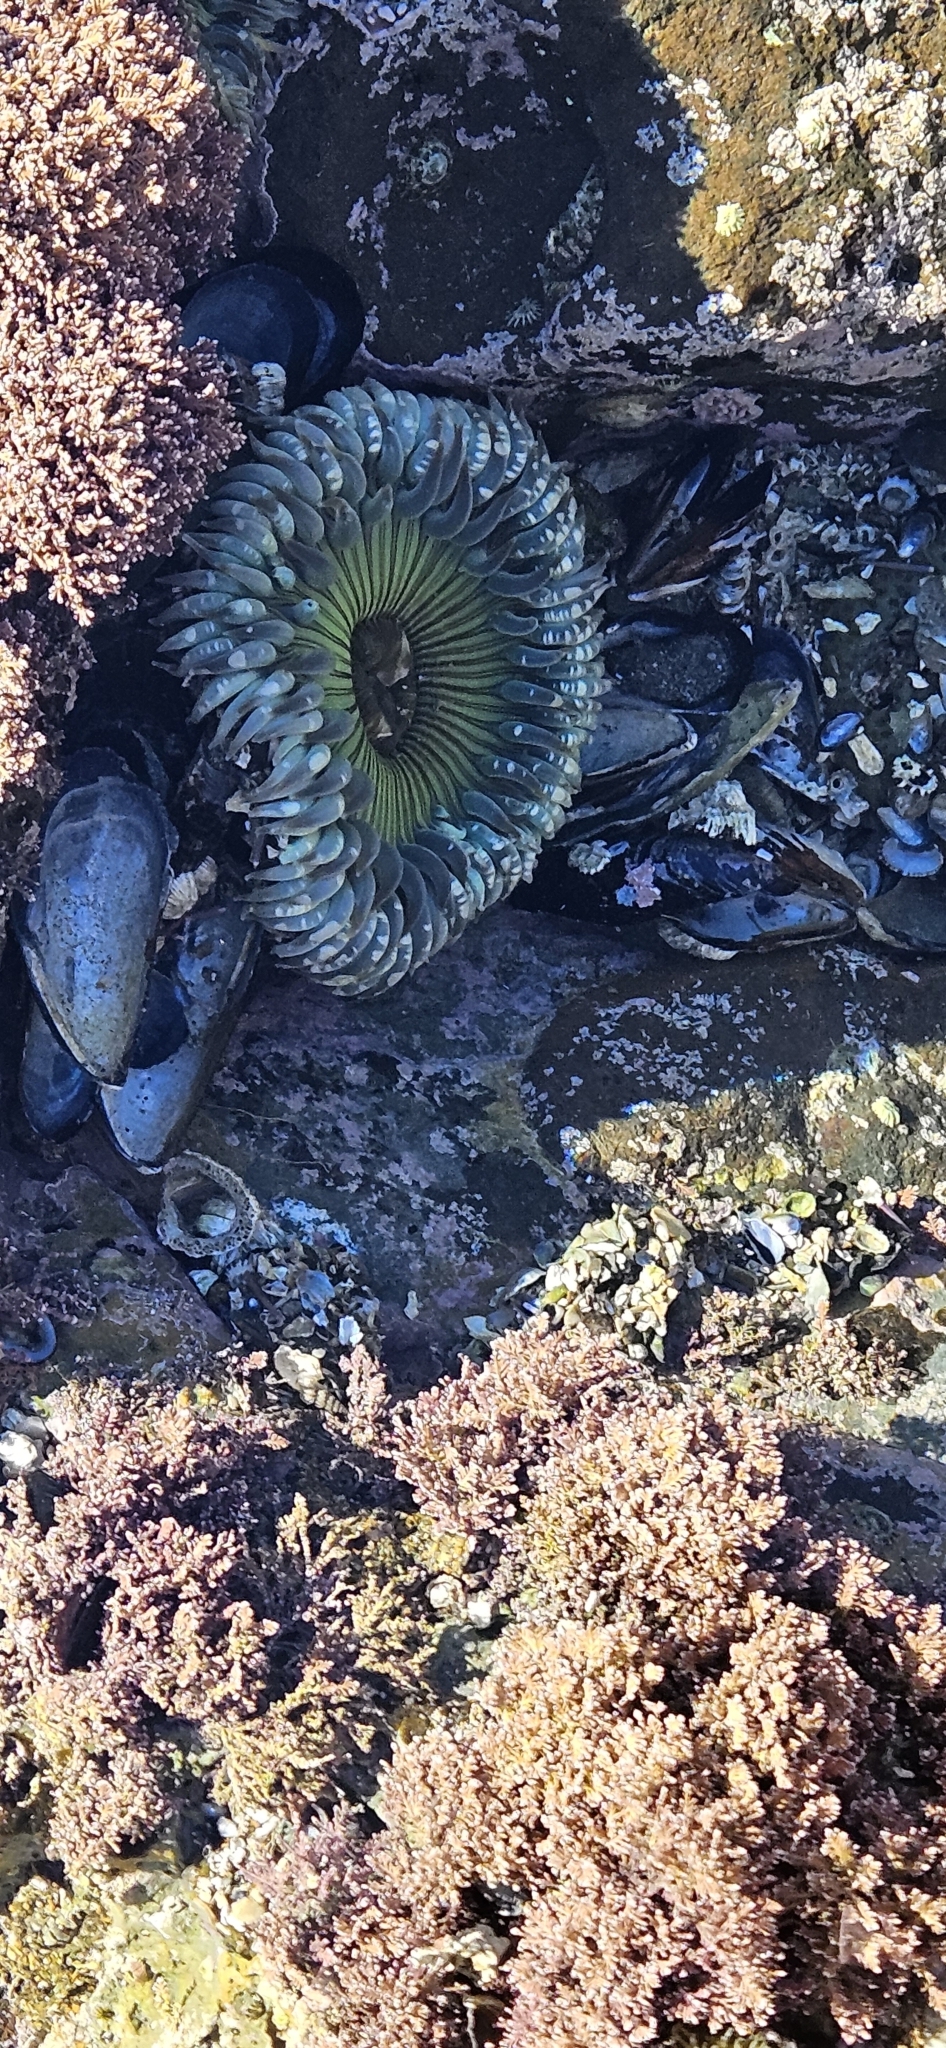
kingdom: Animalia
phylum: Cnidaria
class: Anthozoa
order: Actiniaria
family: Actiniidae
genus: Anthopleura
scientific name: Anthopleura sola
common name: Sun anemone
